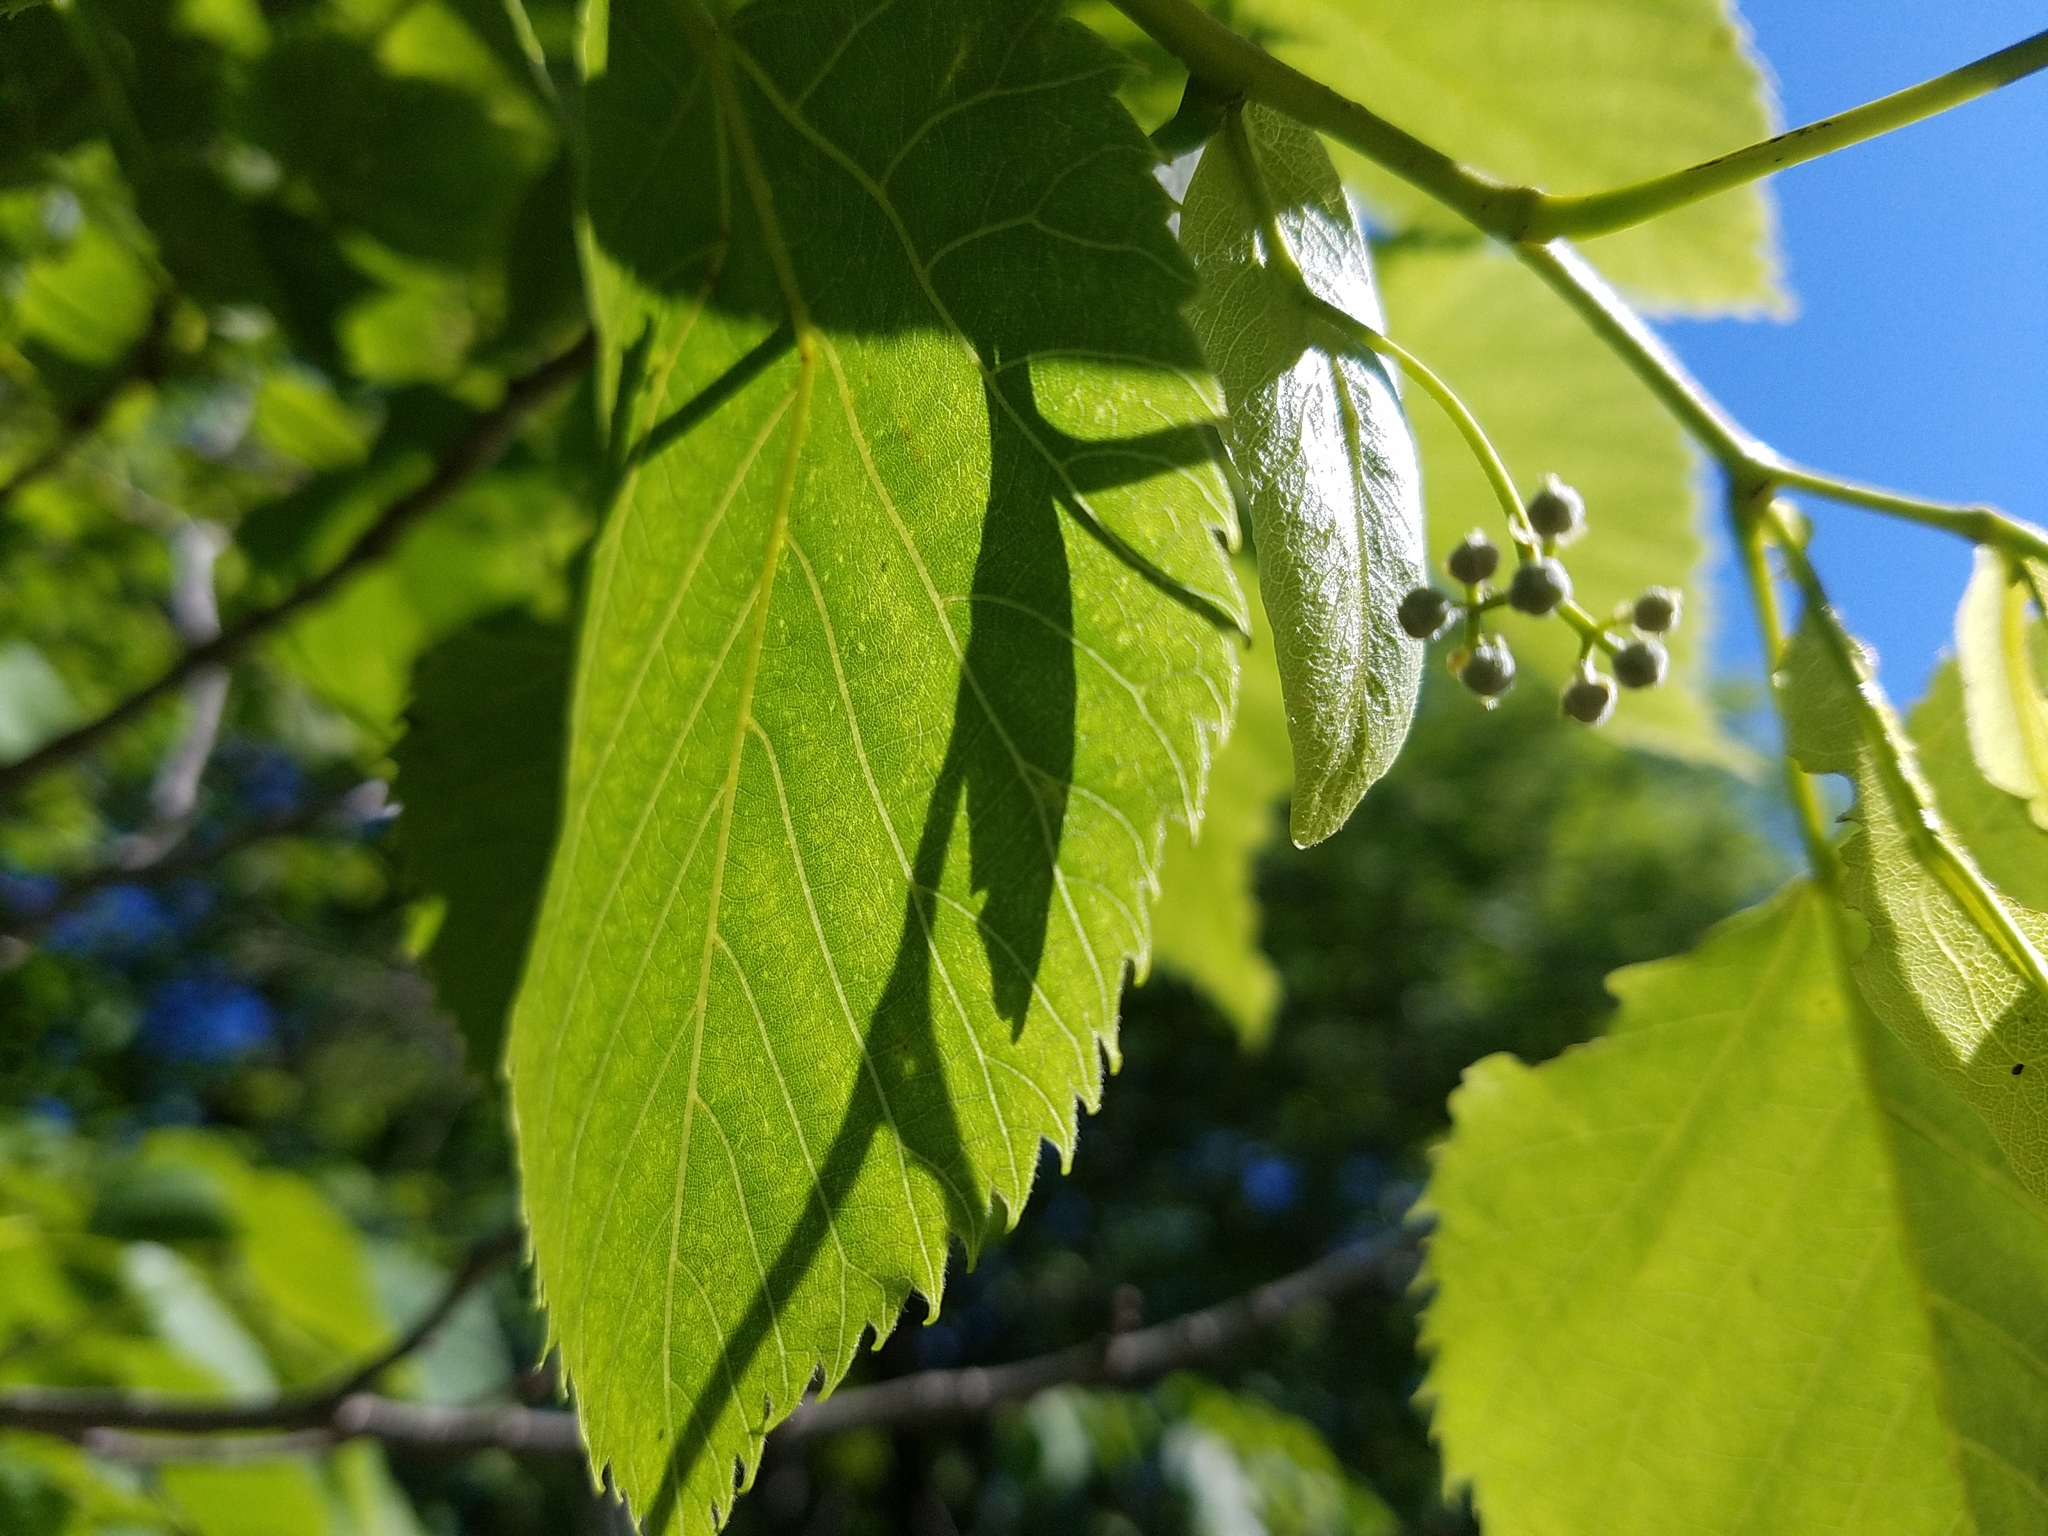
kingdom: Plantae
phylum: Tracheophyta
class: Magnoliopsida
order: Malvales
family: Malvaceae
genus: Tilia
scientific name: Tilia americana
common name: Basswood
